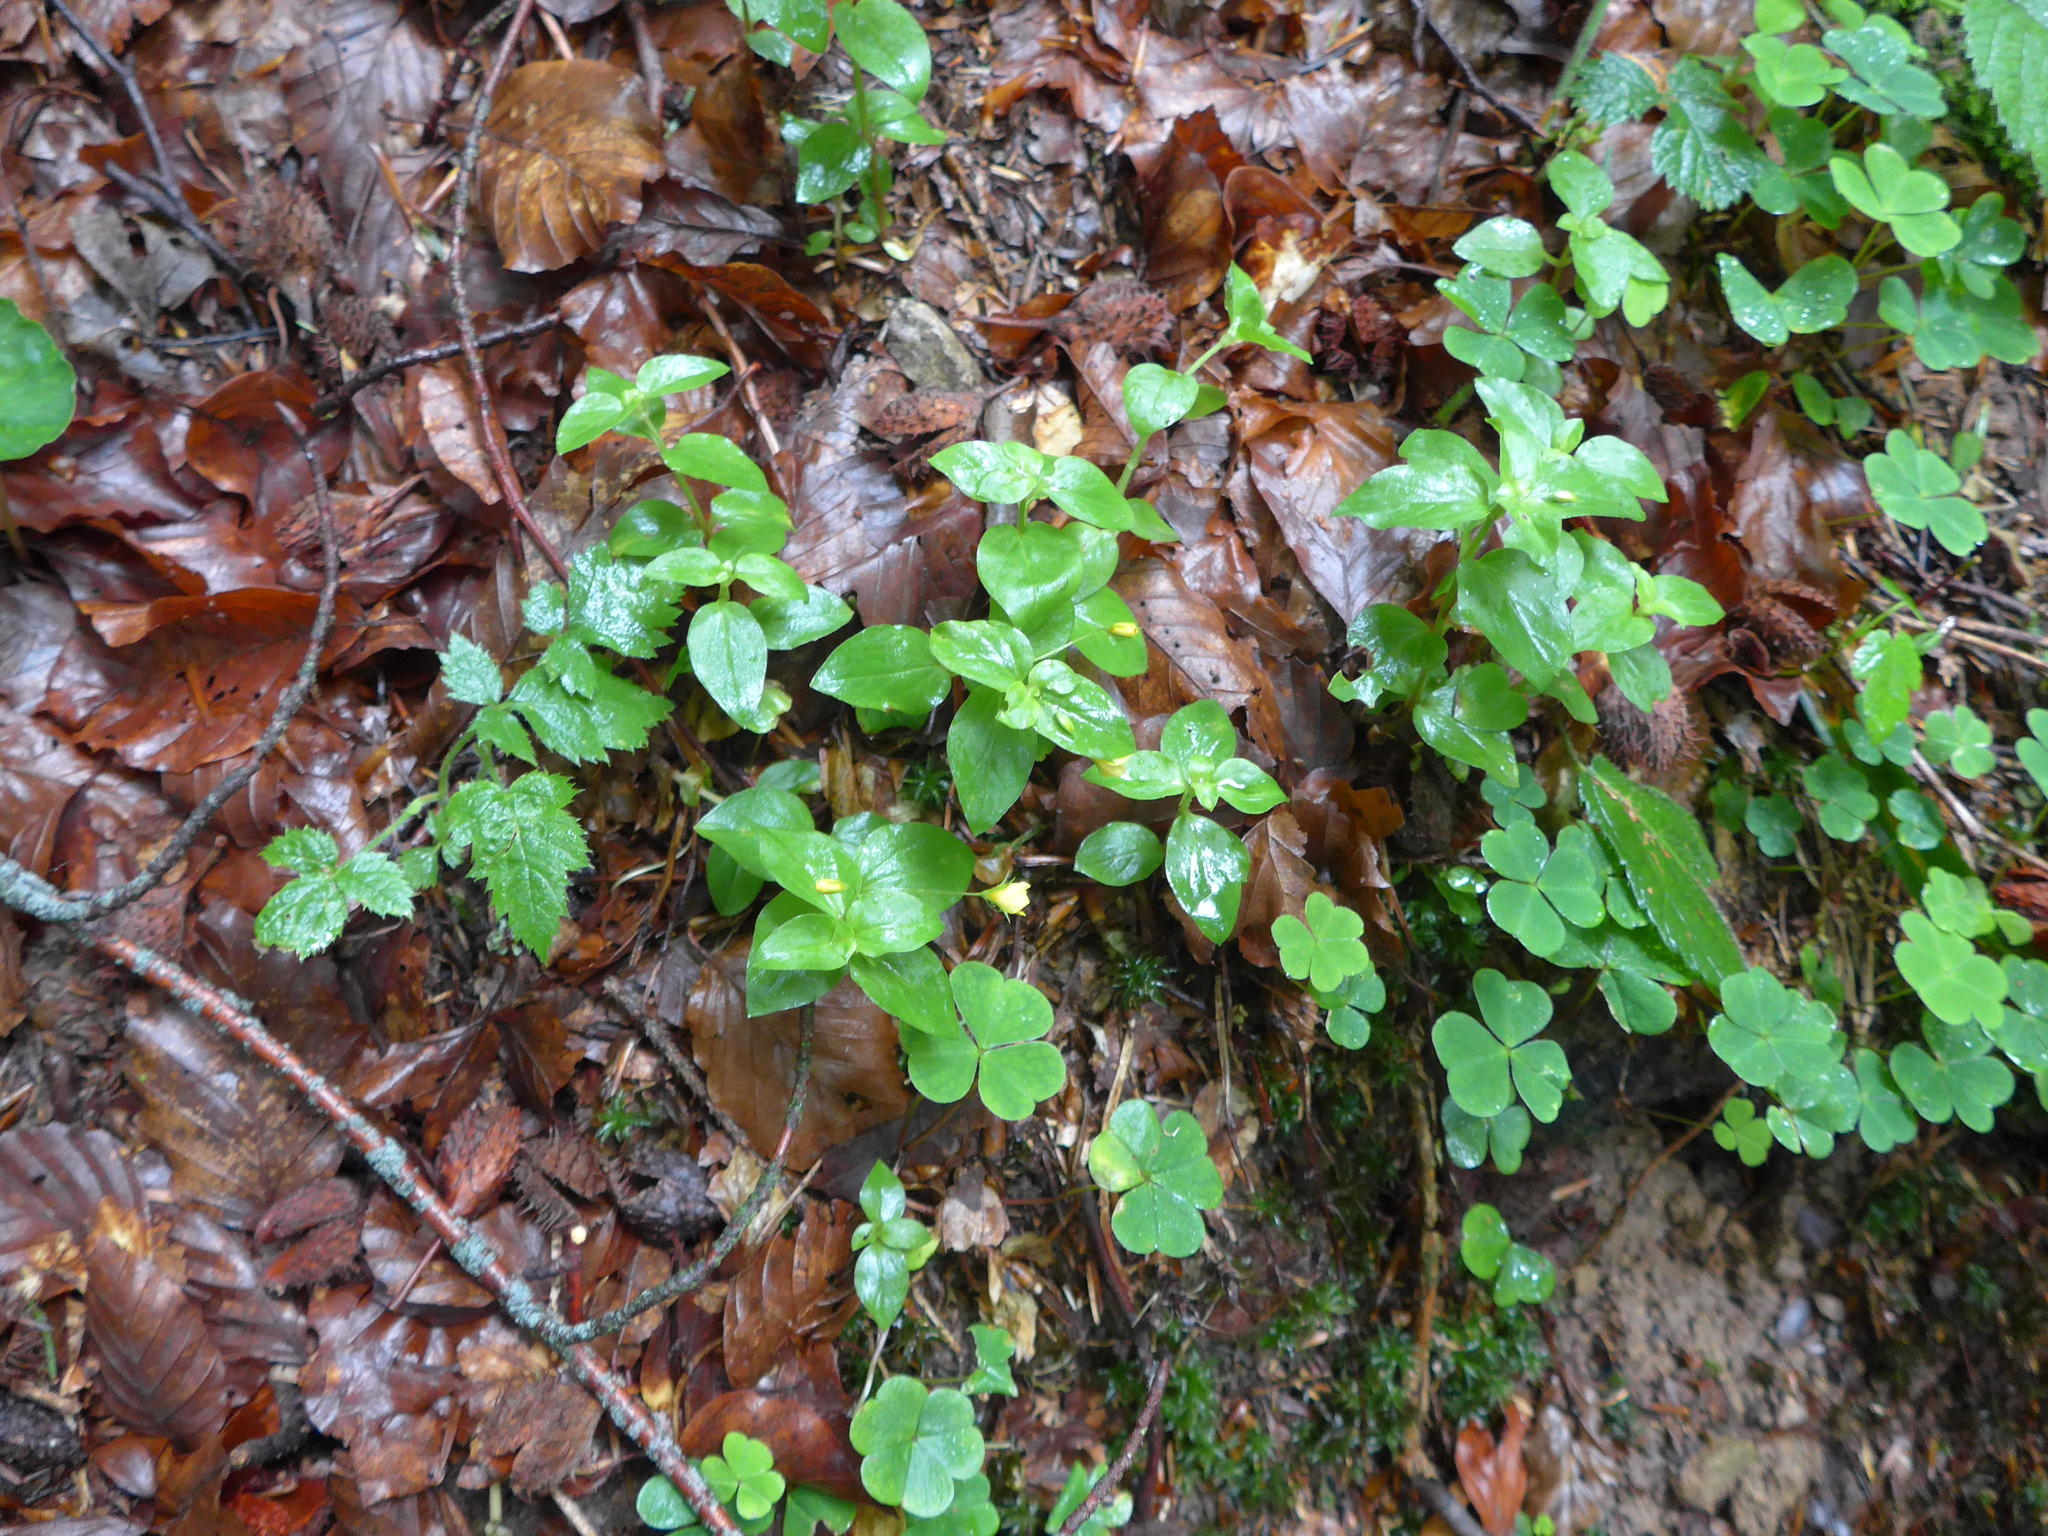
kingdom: Plantae
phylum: Tracheophyta
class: Magnoliopsida
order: Ericales
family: Primulaceae
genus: Lysimachia
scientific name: Lysimachia nemorum
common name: Yellow pimpernel
